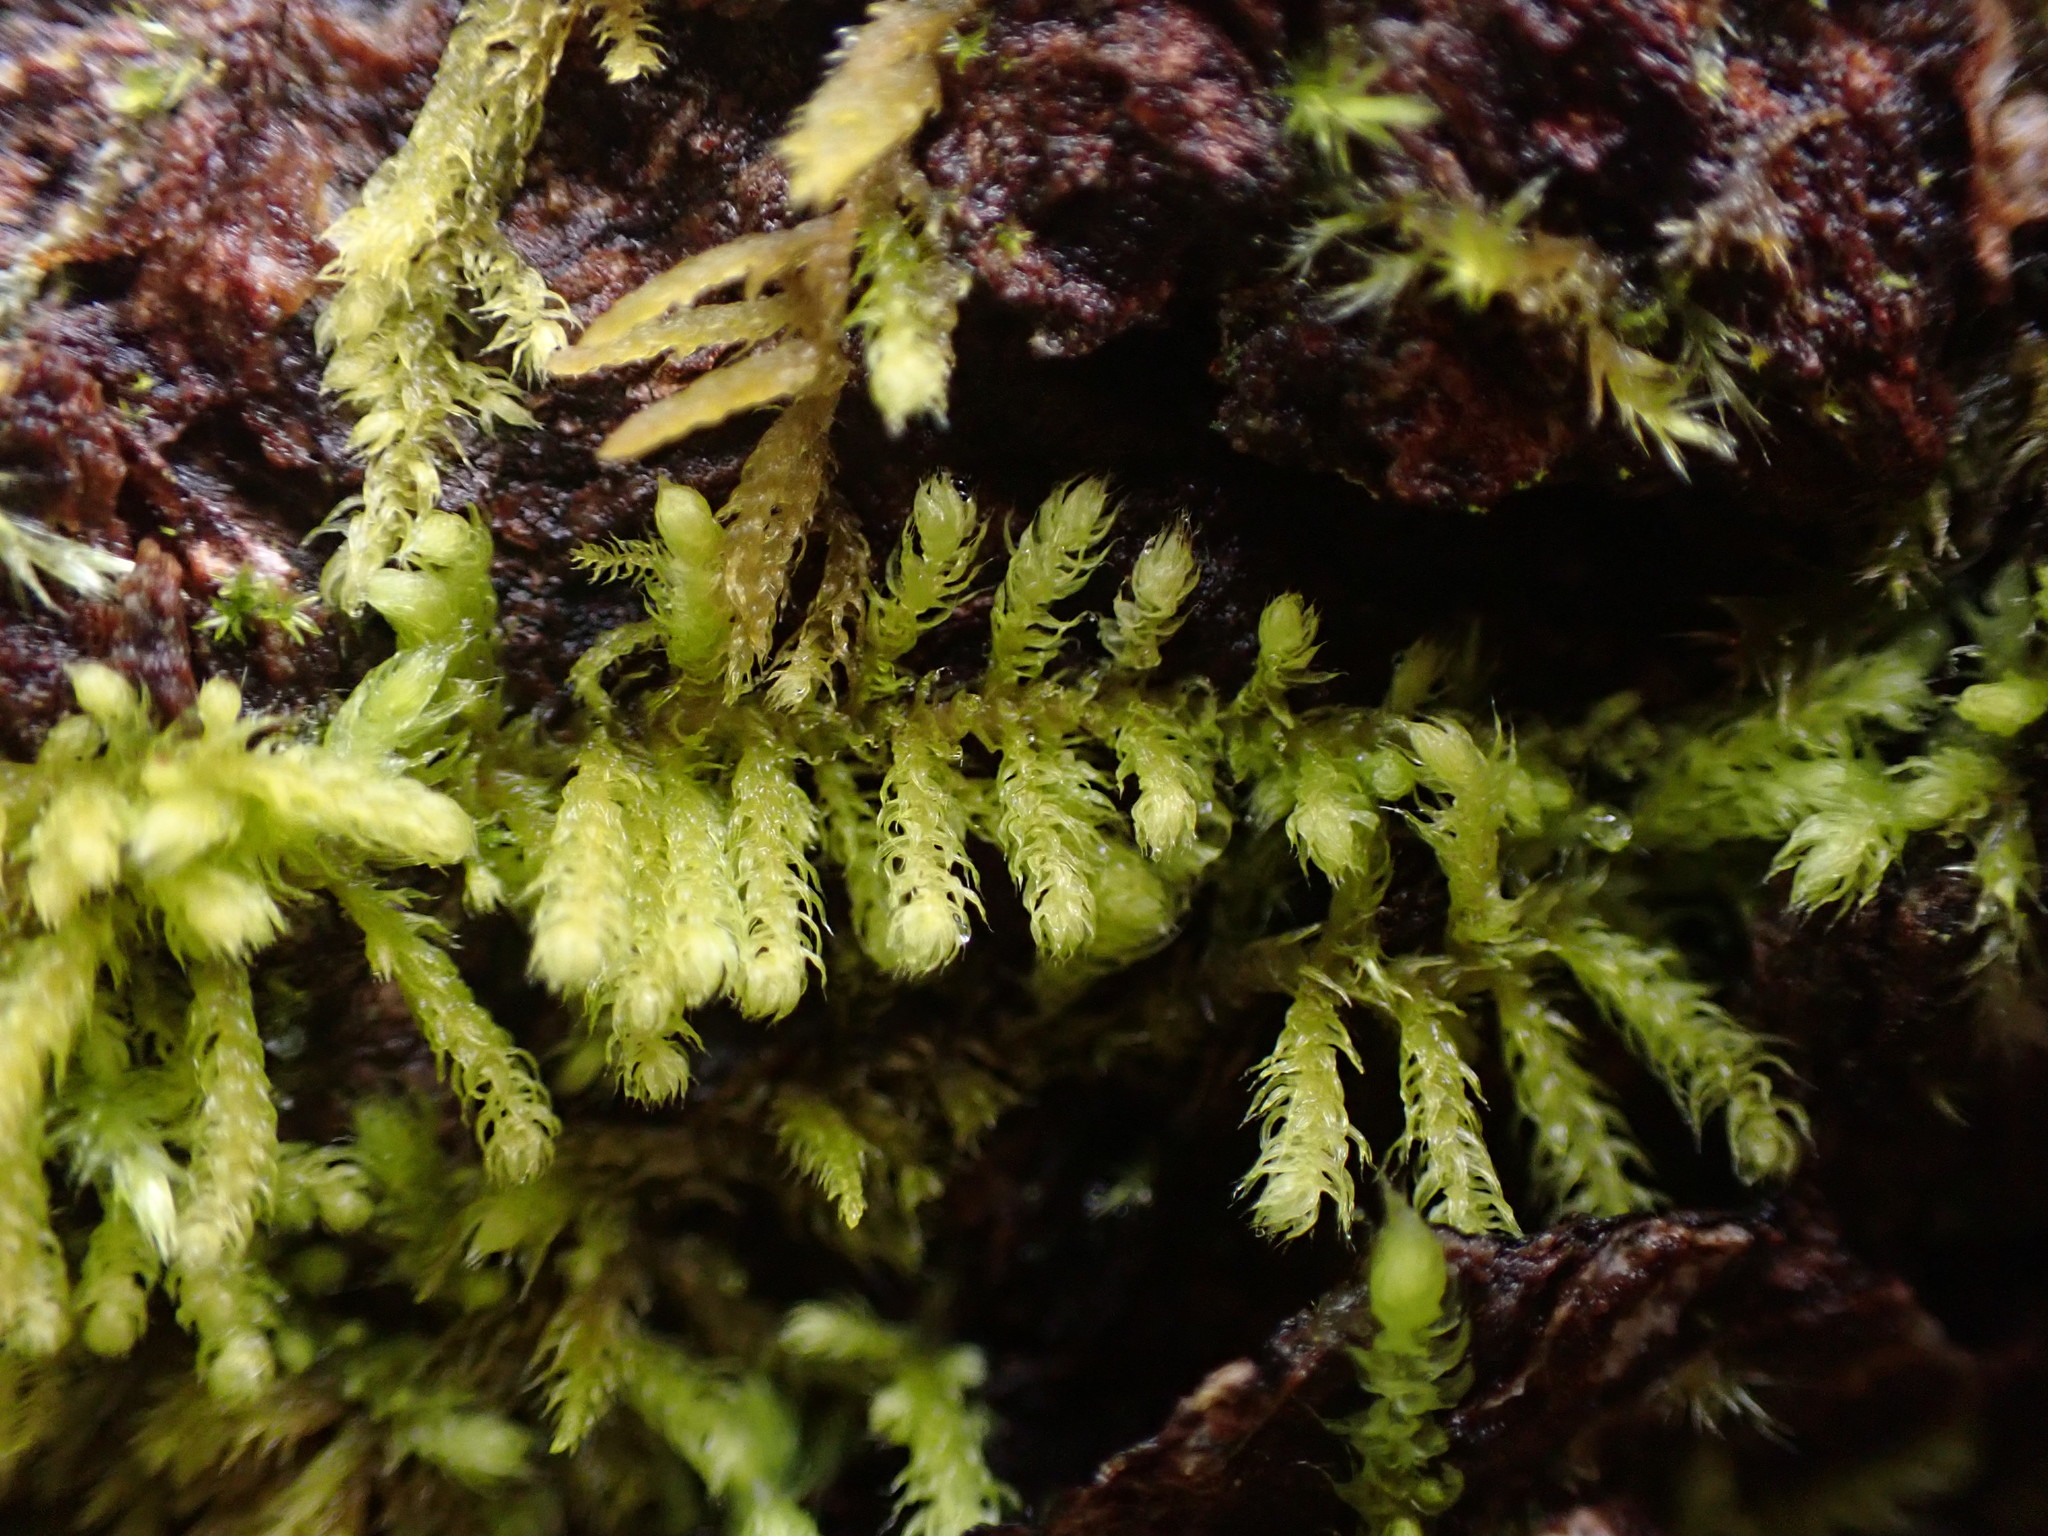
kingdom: Plantae
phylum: Bryophyta
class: Bryopsida
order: Hypnales
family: Brachytheciaceae
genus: Claopodium
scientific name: Claopodium crispifolium
